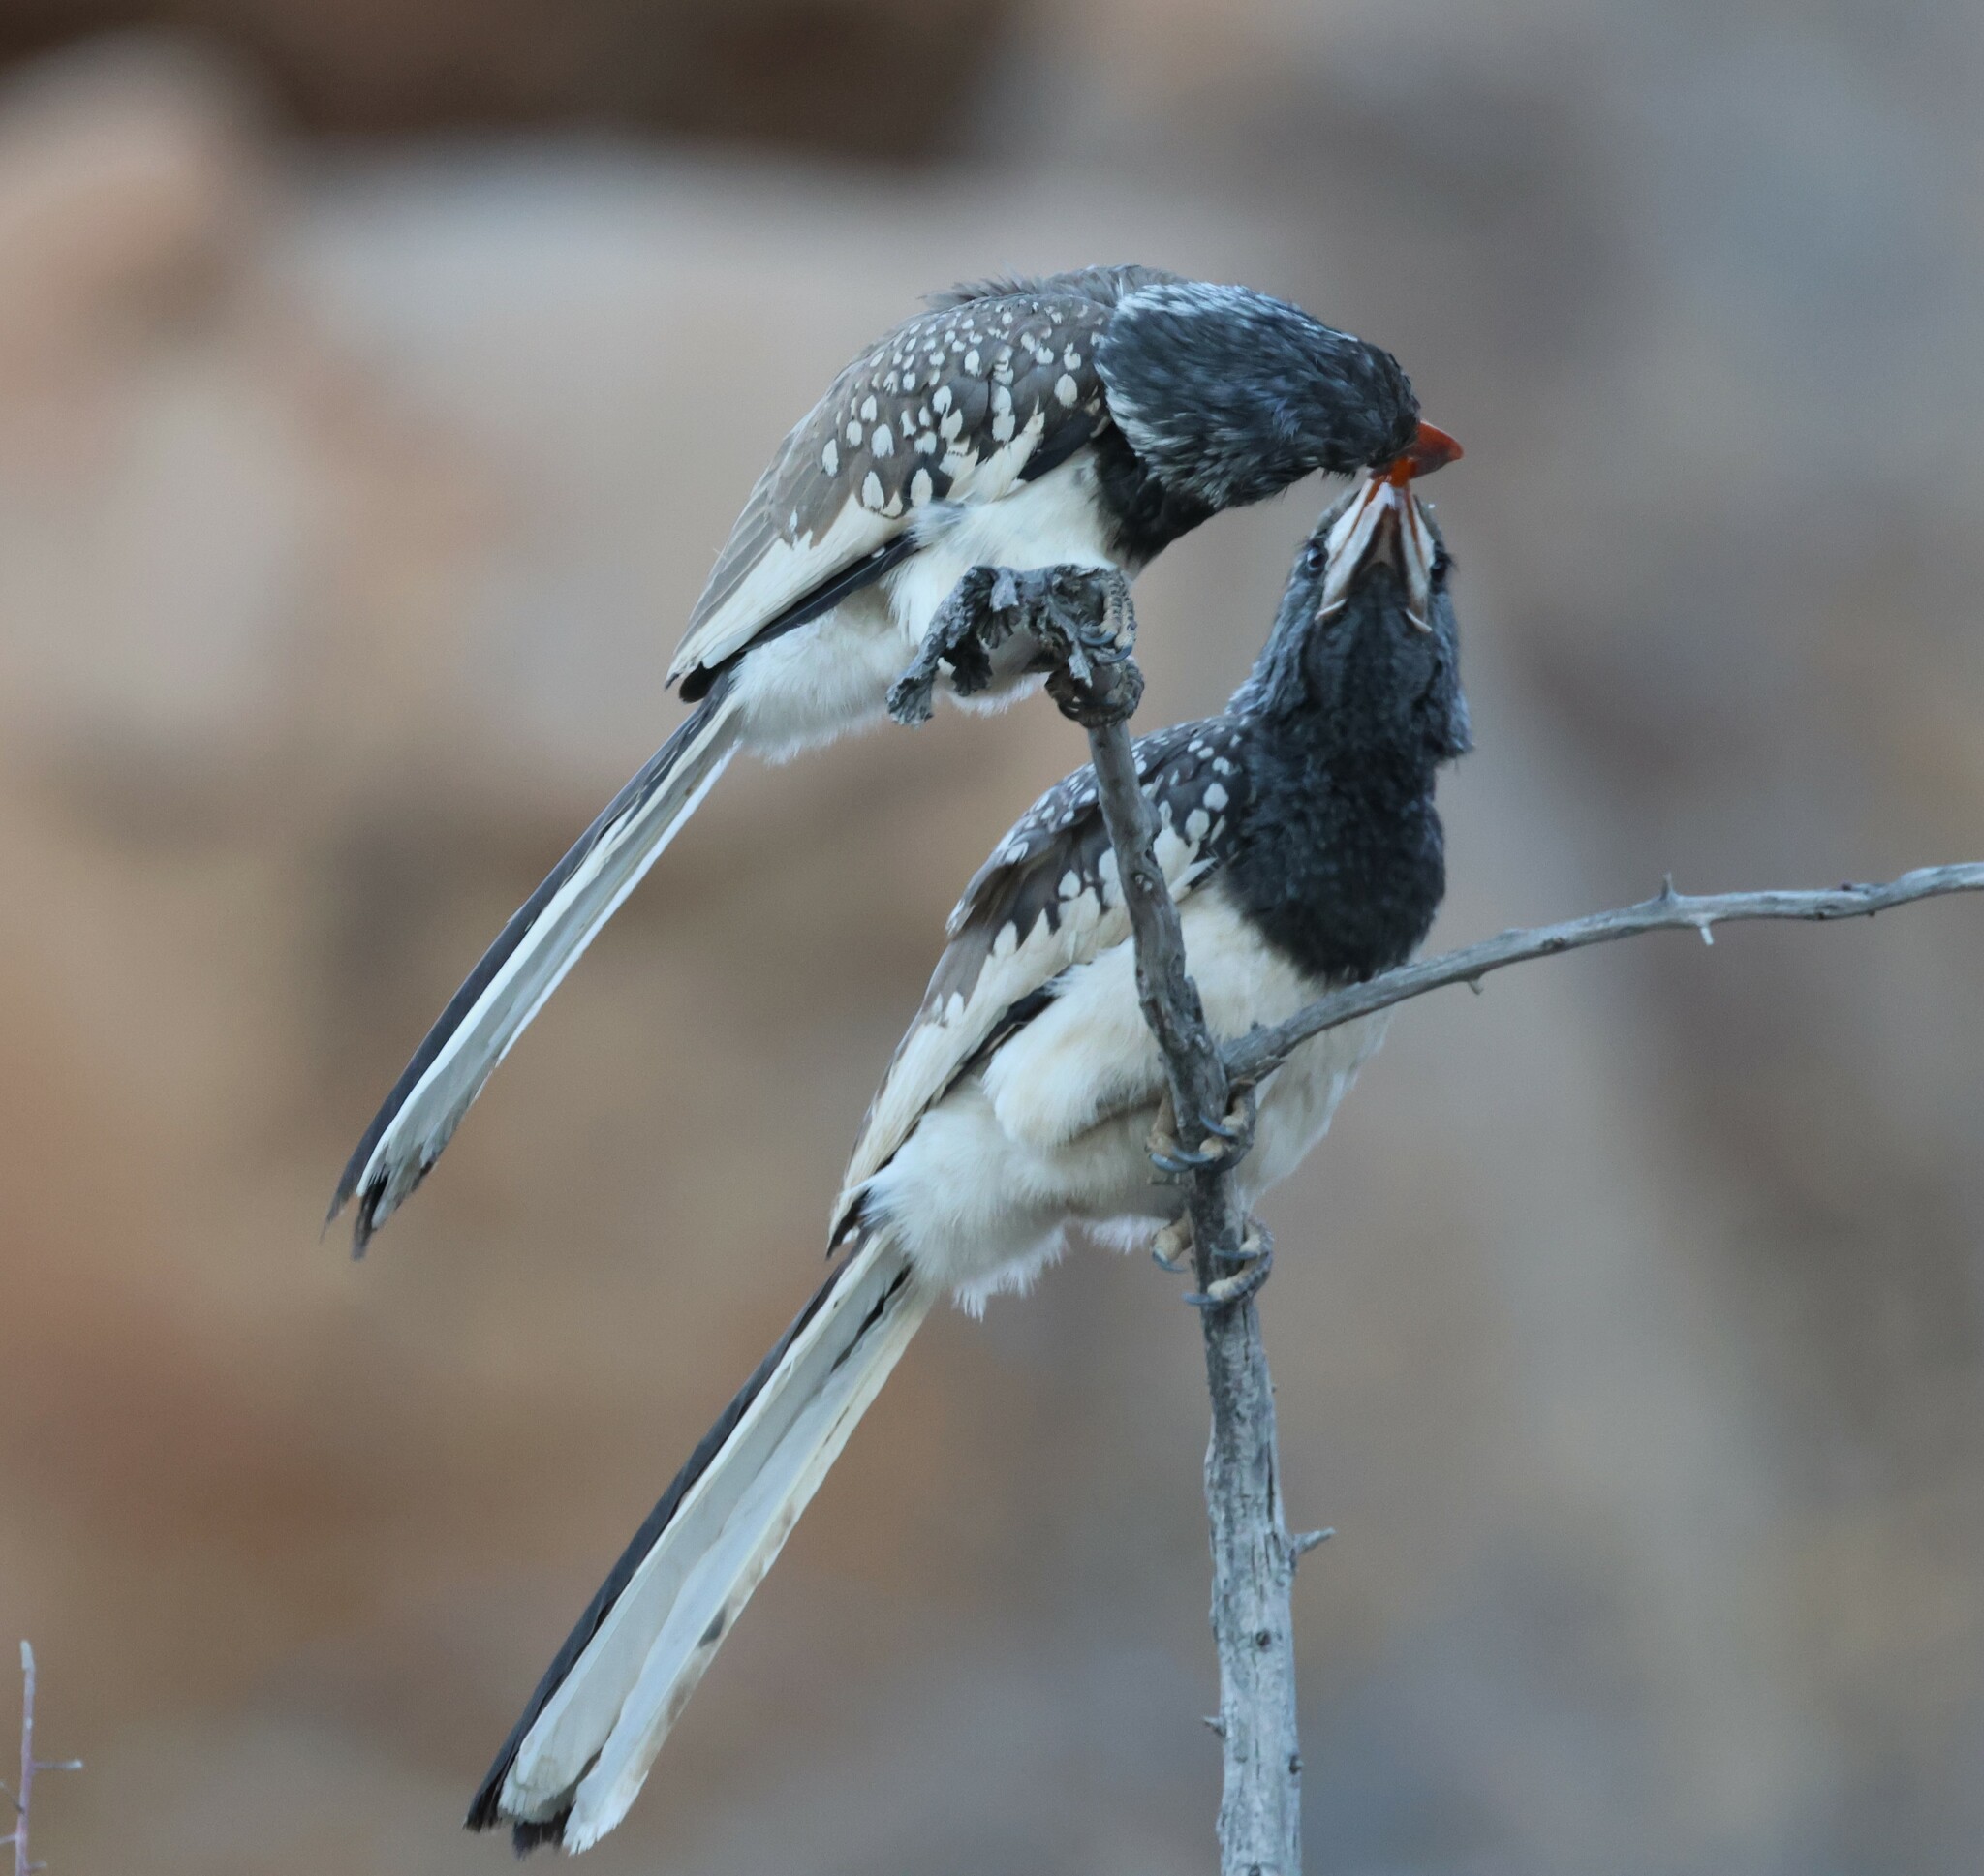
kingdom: Animalia
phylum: Chordata
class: Aves
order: Bucerotiformes
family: Bucerotidae
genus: Tockus
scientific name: Tockus monteiri
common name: Monteiro's hornbill
